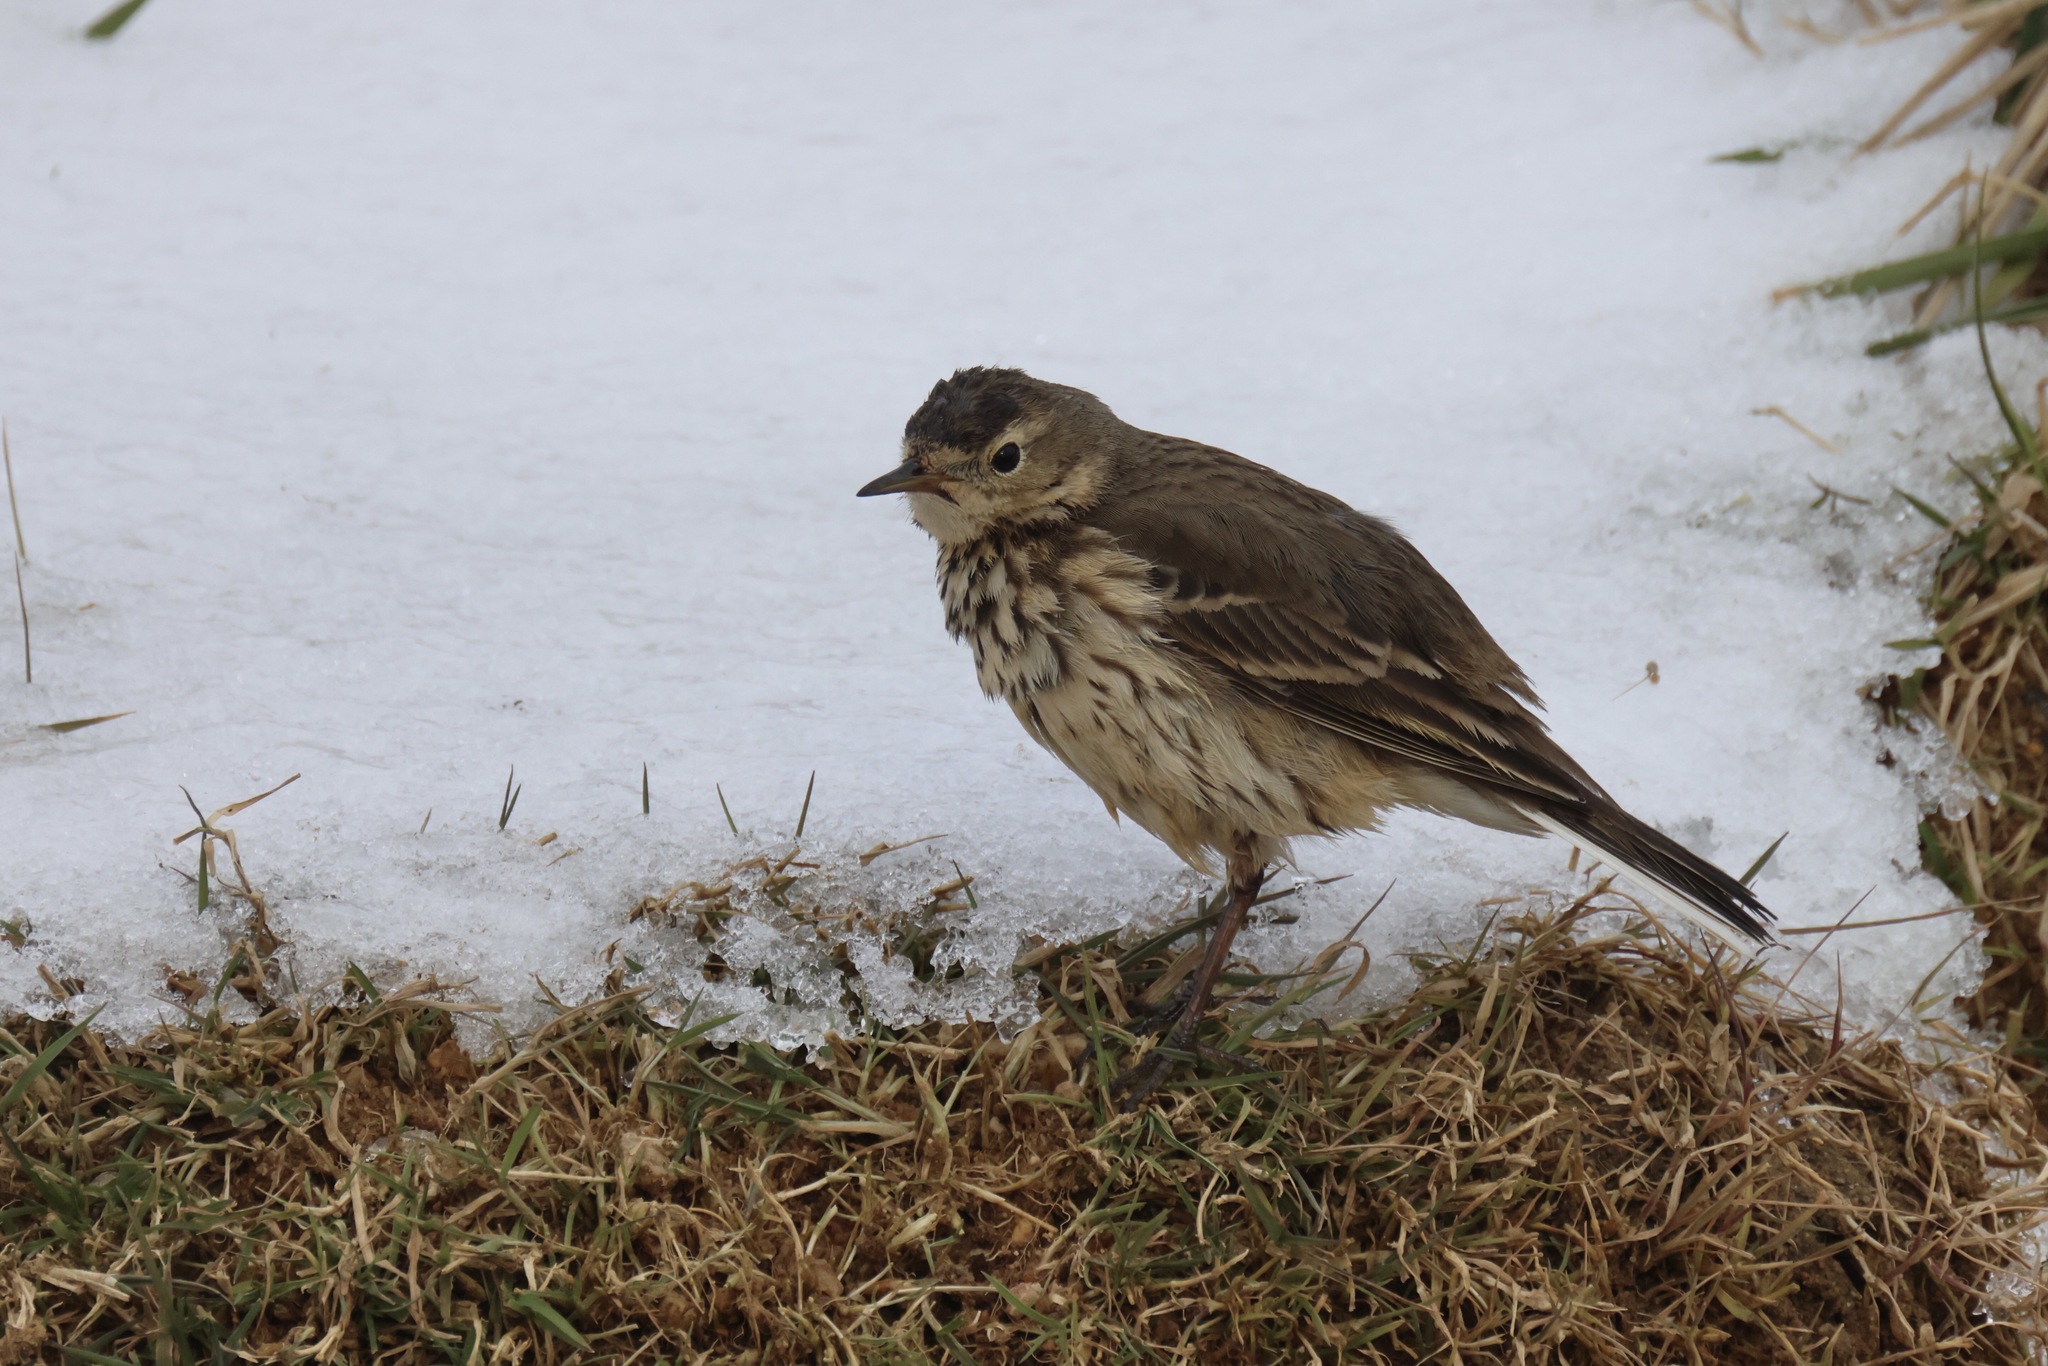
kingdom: Animalia
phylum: Chordata
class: Aves
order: Passeriformes
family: Motacillidae
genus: Anthus
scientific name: Anthus rubescens
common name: Buff-bellied pipit
